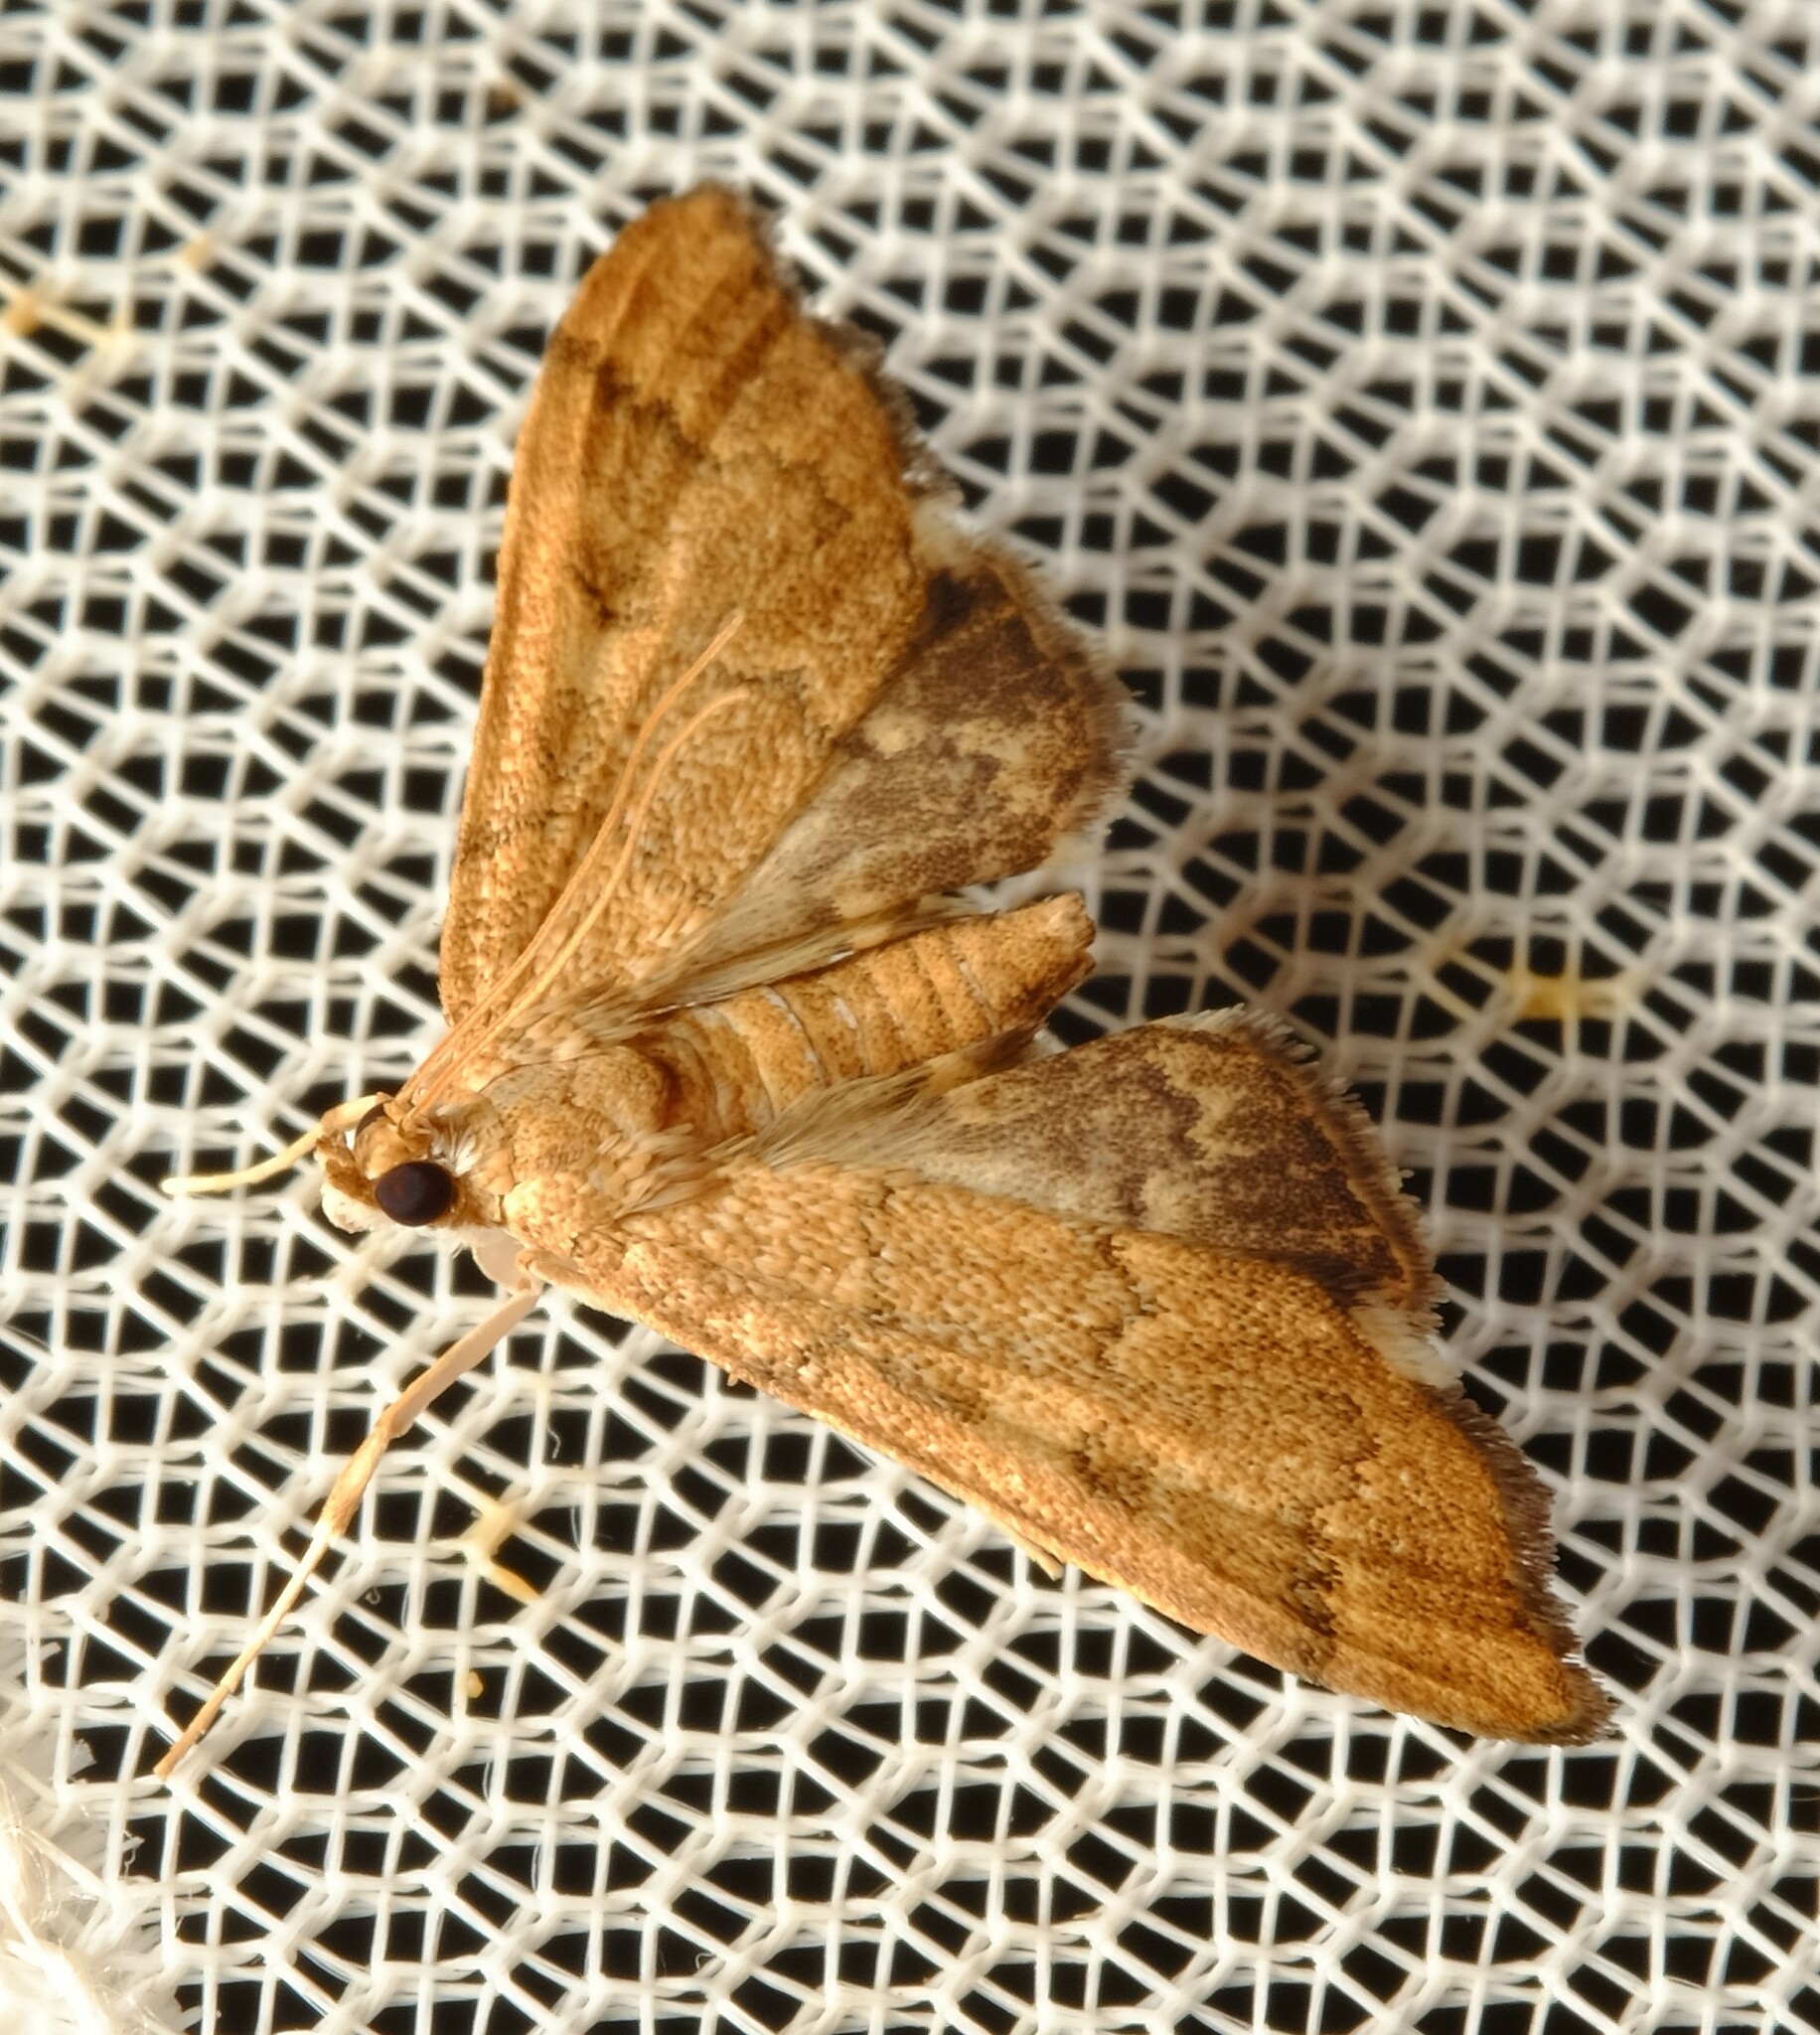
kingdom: Animalia
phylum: Arthropoda
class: Insecta
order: Lepidoptera
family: Crambidae
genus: Nacoleia
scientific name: Nacoleia oncophragma
